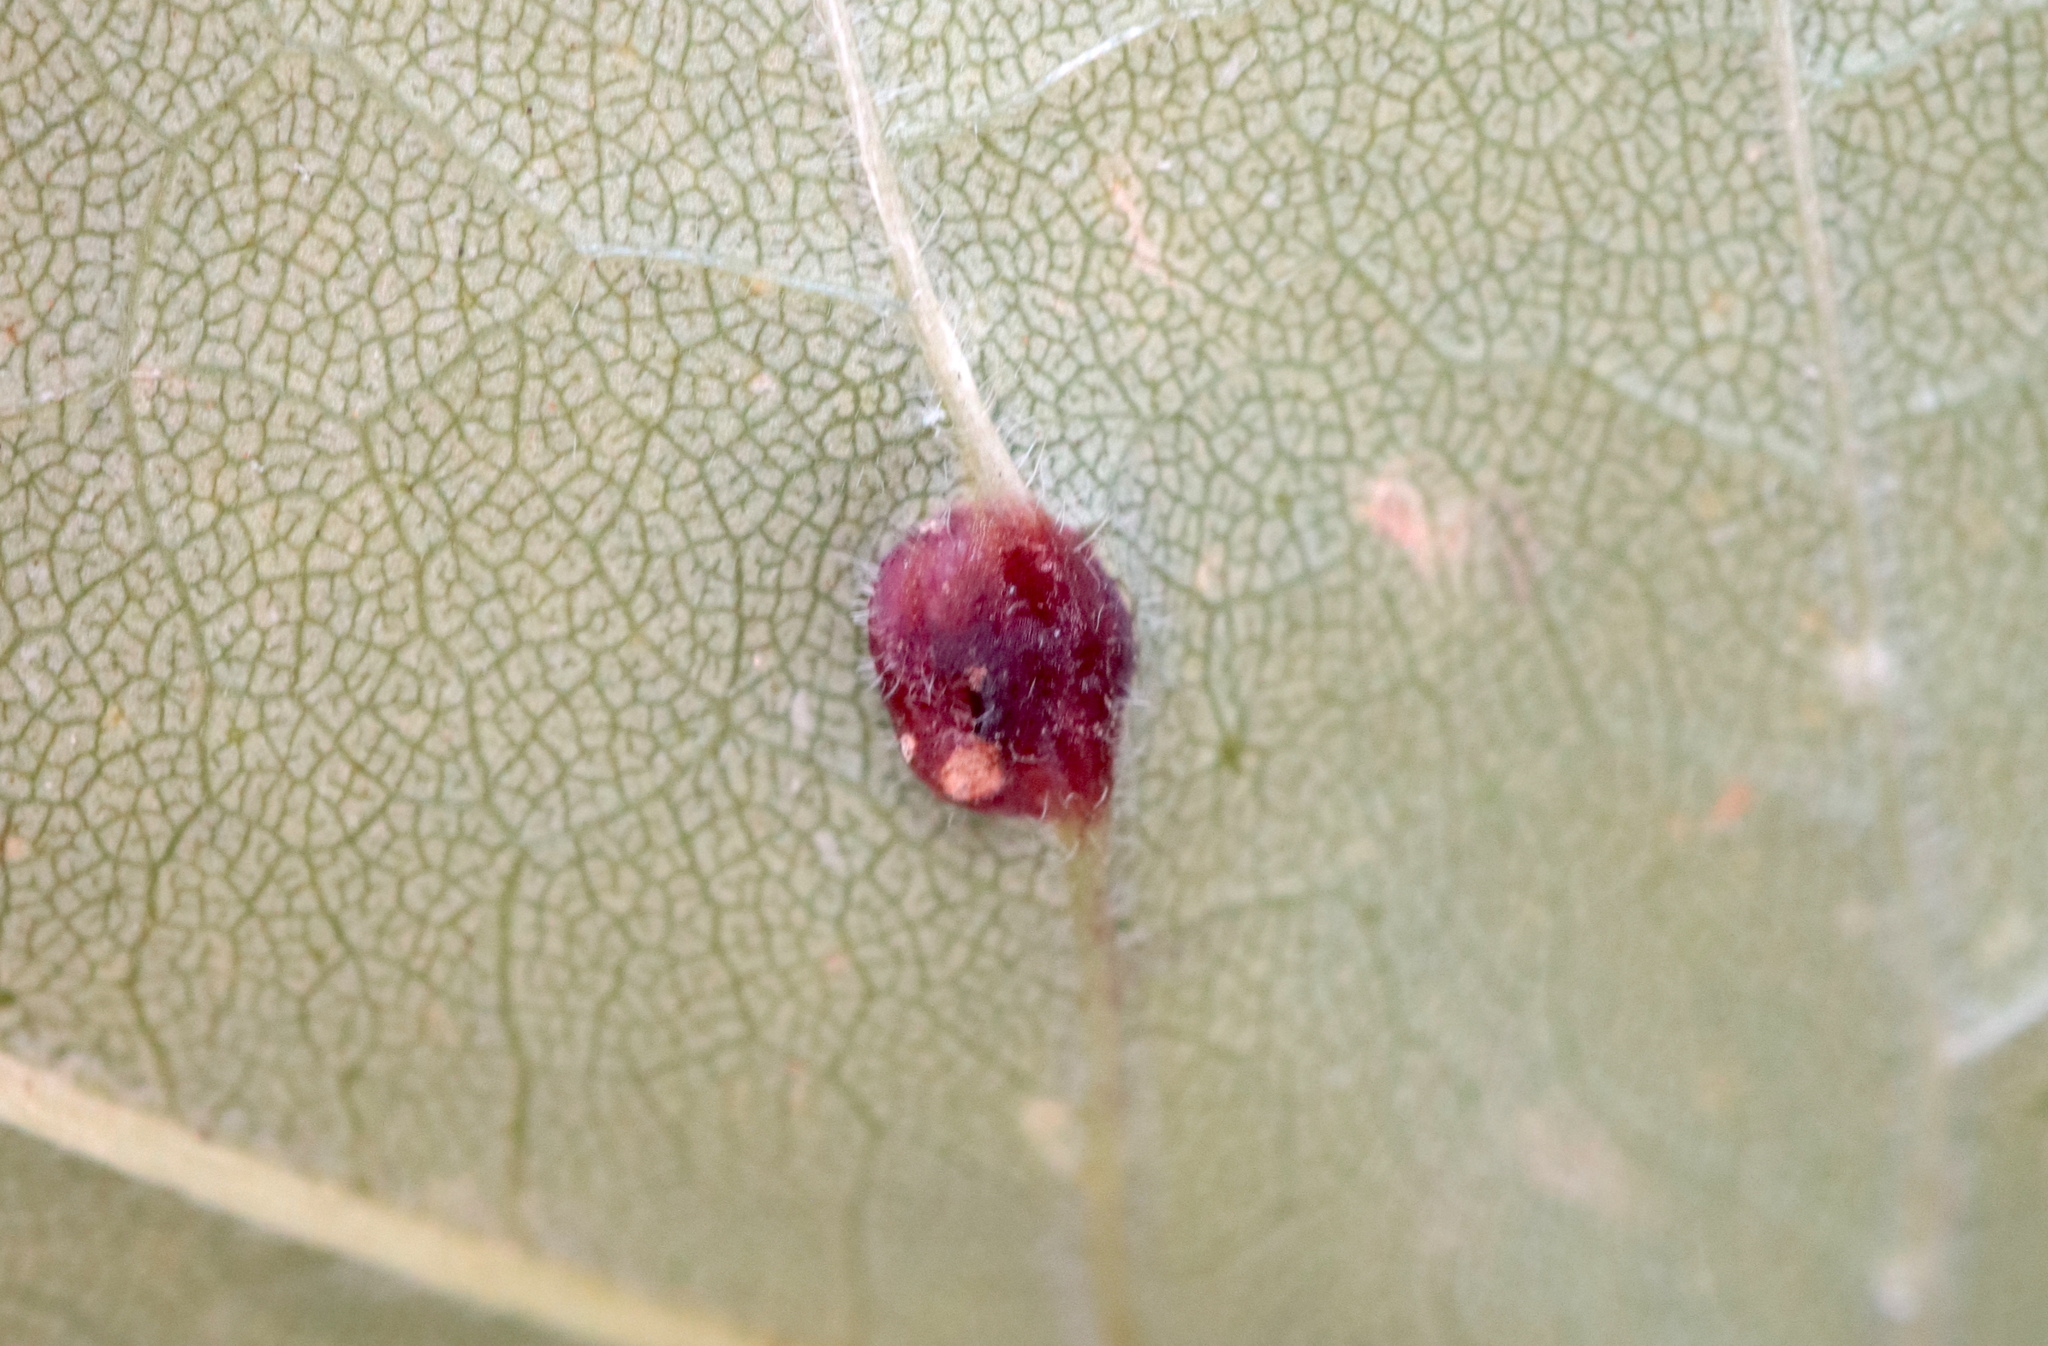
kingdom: Animalia
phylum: Arthropoda
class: Insecta
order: Diptera
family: Cecidomyiidae
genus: Dasineura
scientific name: Dasineura pellex
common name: Ash bullet gall midge
